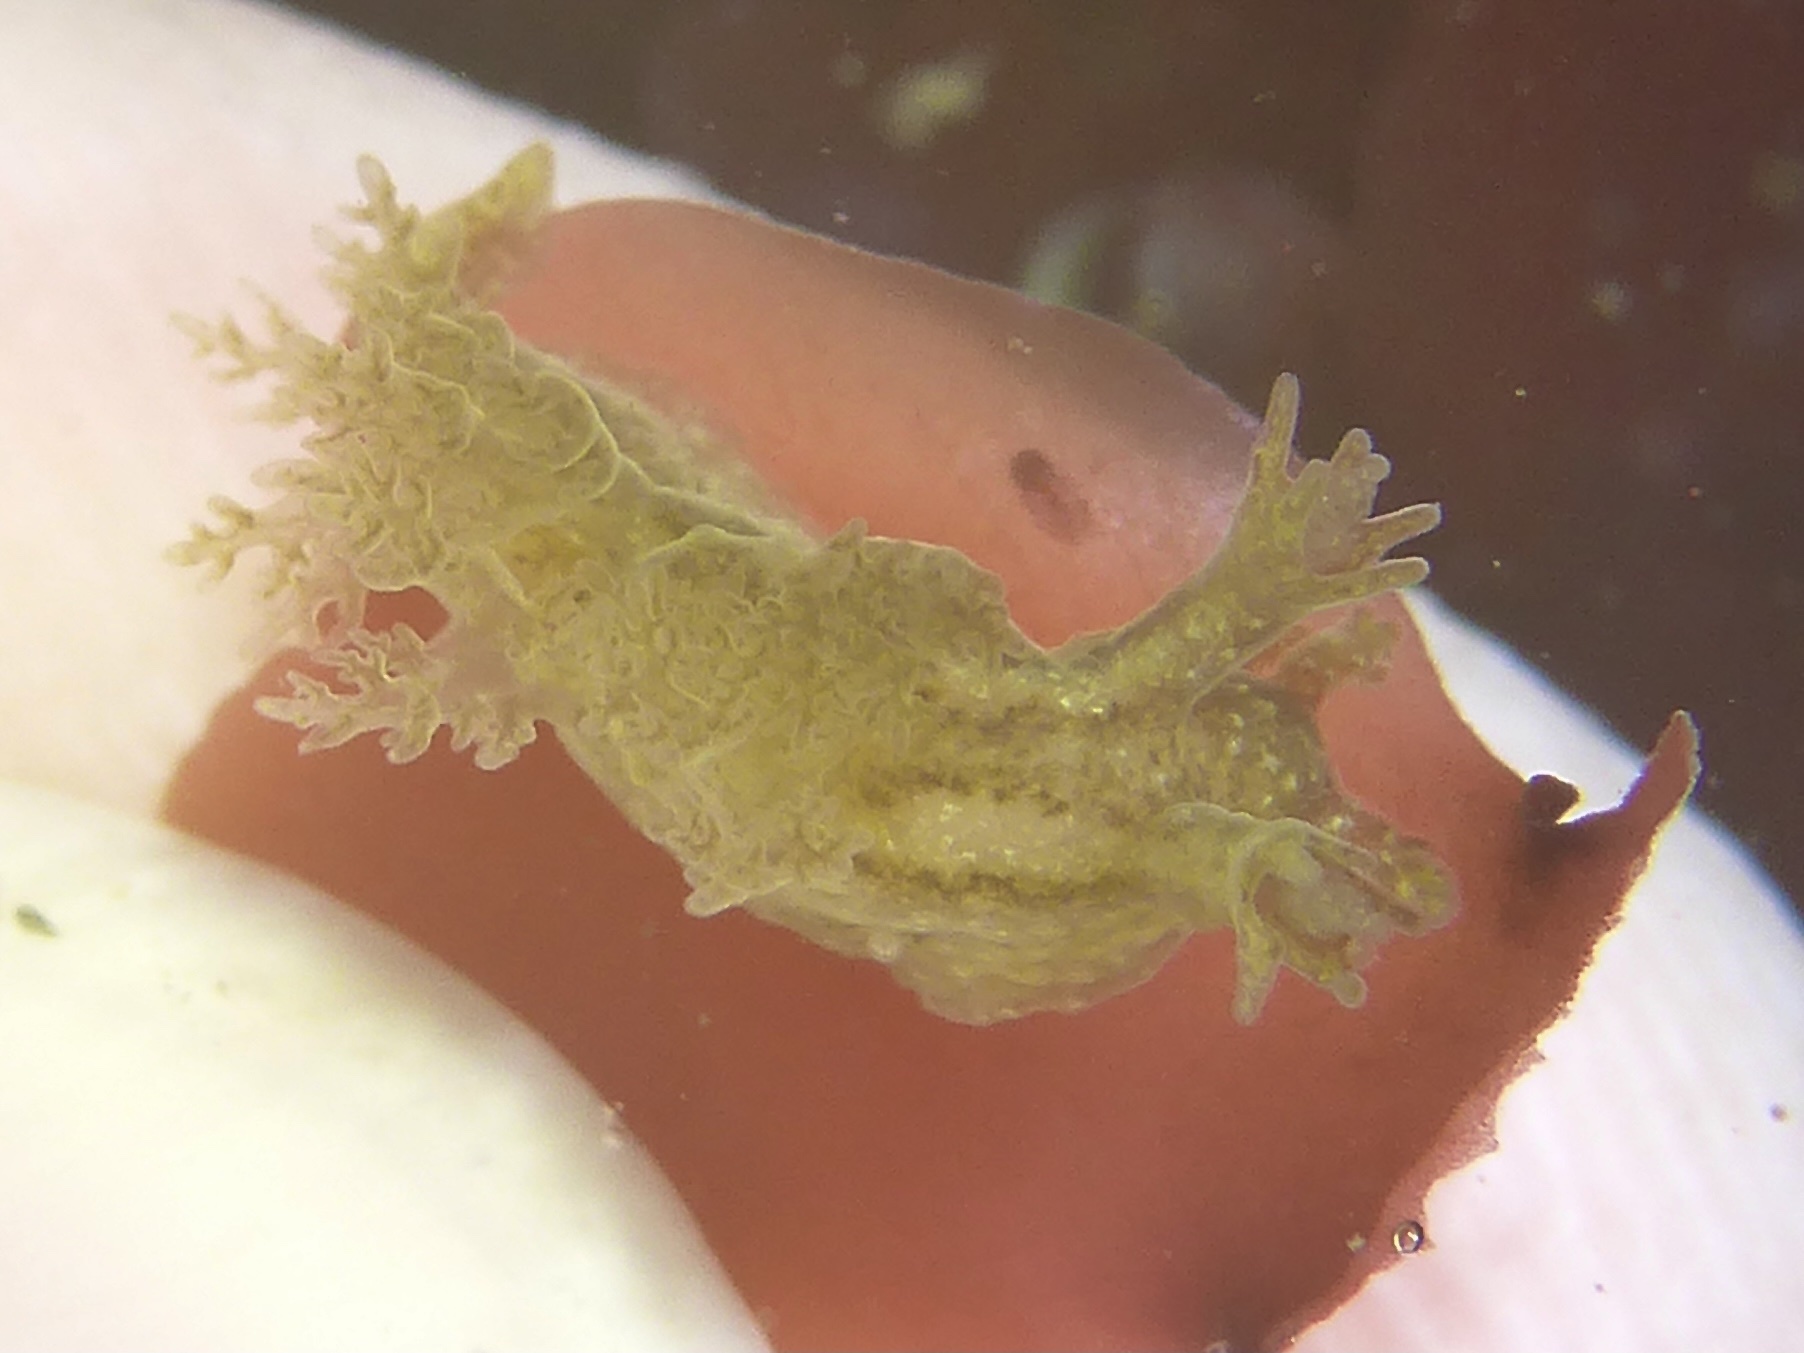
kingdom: Animalia
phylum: Mollusca
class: Gastropoda
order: Nudibranchia
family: Dendronotidae
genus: Dendronotus
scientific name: Dendronotus subramosus
